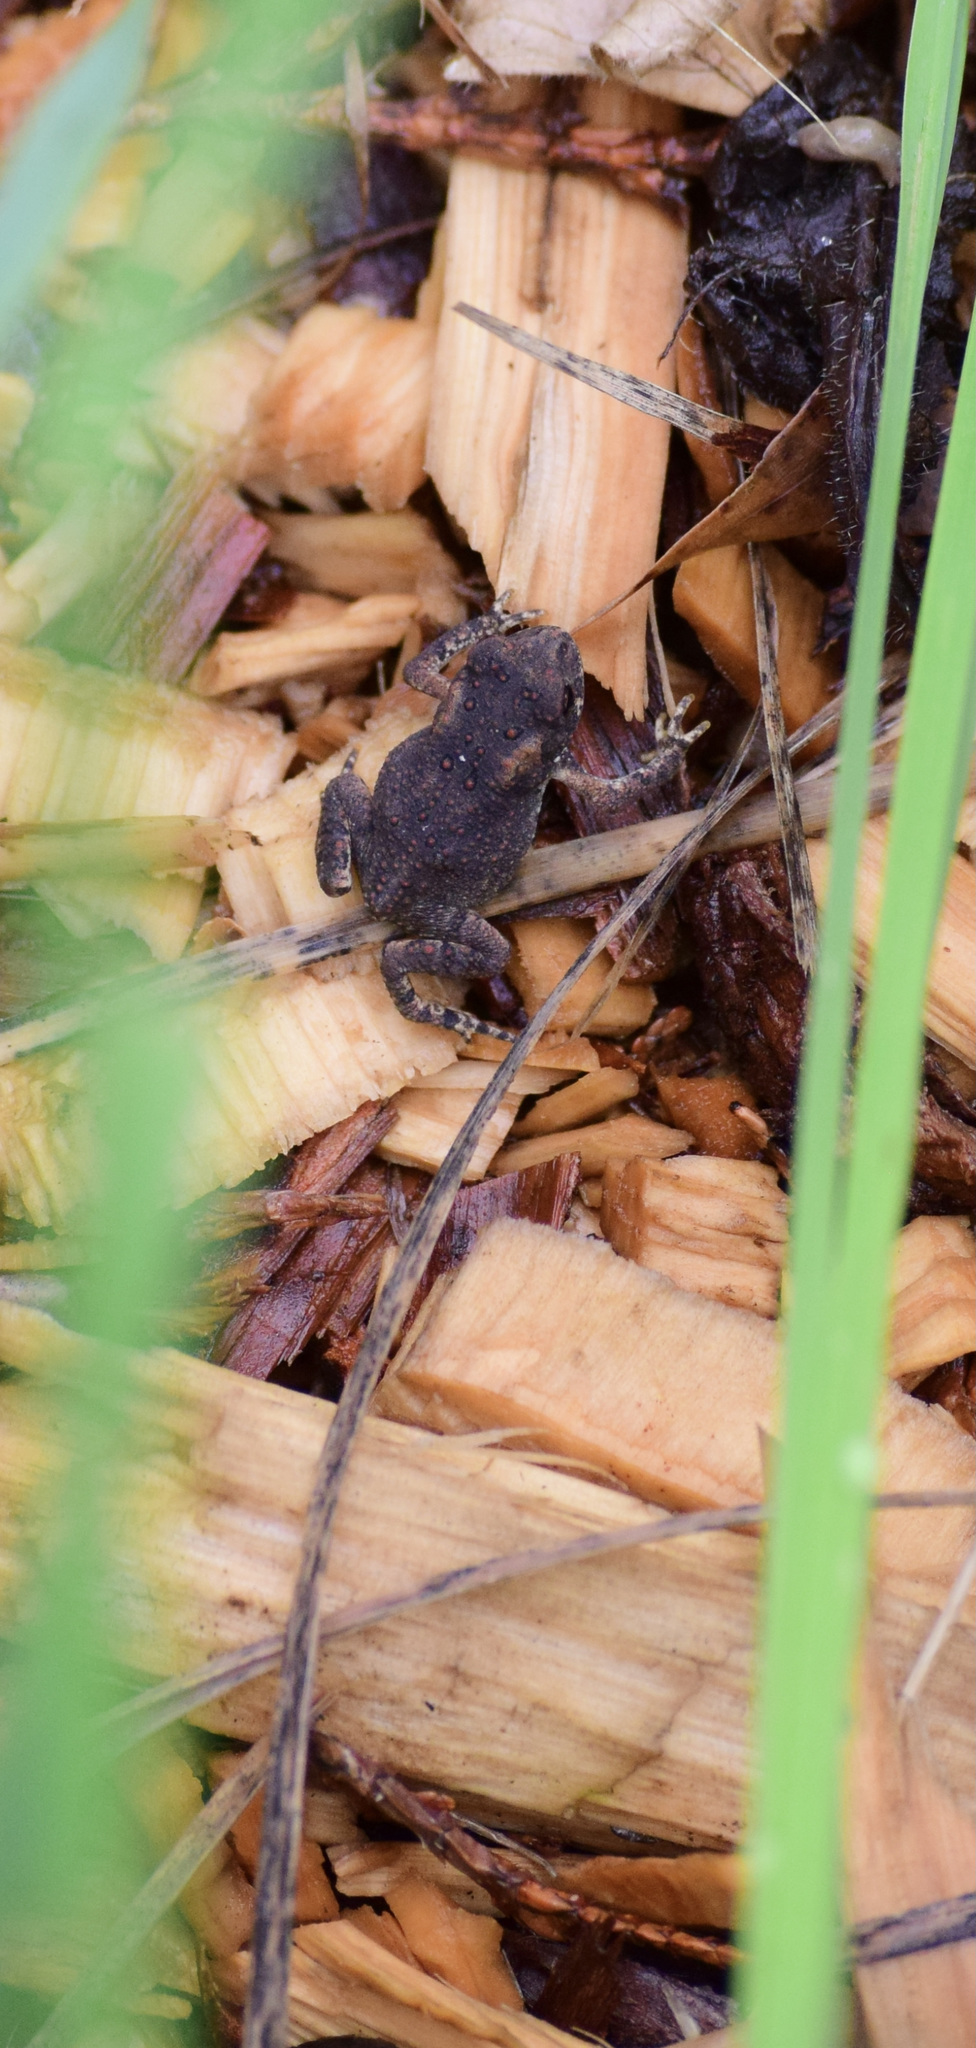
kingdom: Animalia
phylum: Chordata
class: Amphibia
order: Anura
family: Bufonidae
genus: Anaxyrus
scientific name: Anaxyrus americanus
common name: American toad
